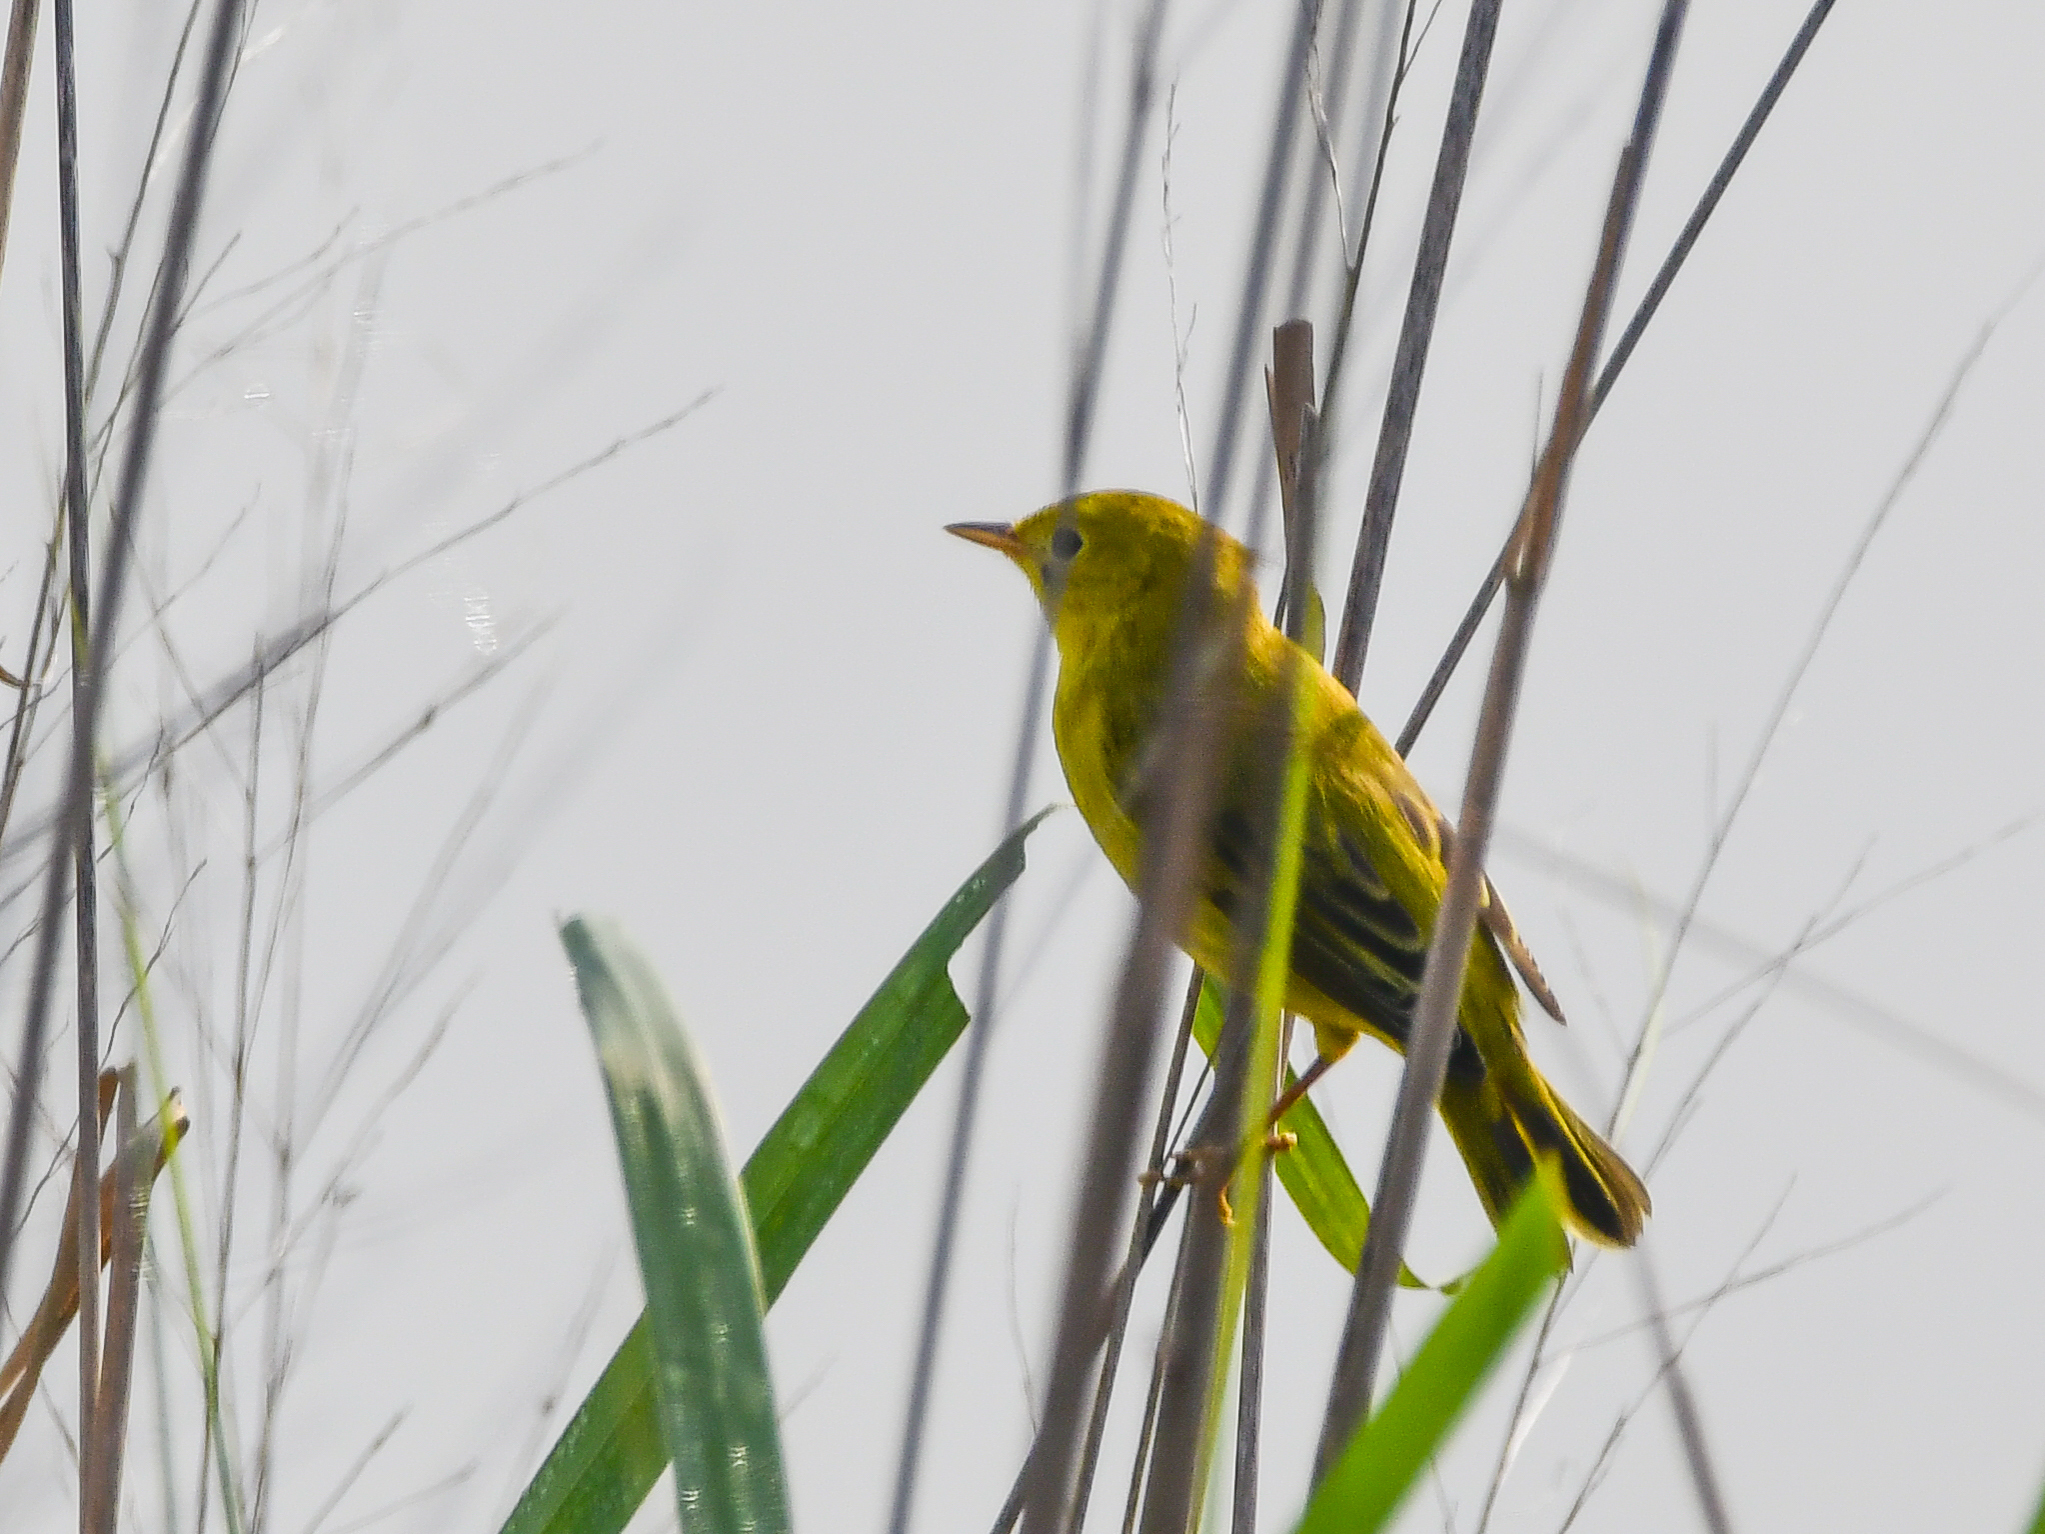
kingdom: Animalia
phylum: Chordata
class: Aves
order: Passeriformes
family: Parulidae
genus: Setophaga
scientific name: Setophaga petechia
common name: Yellow warbler
